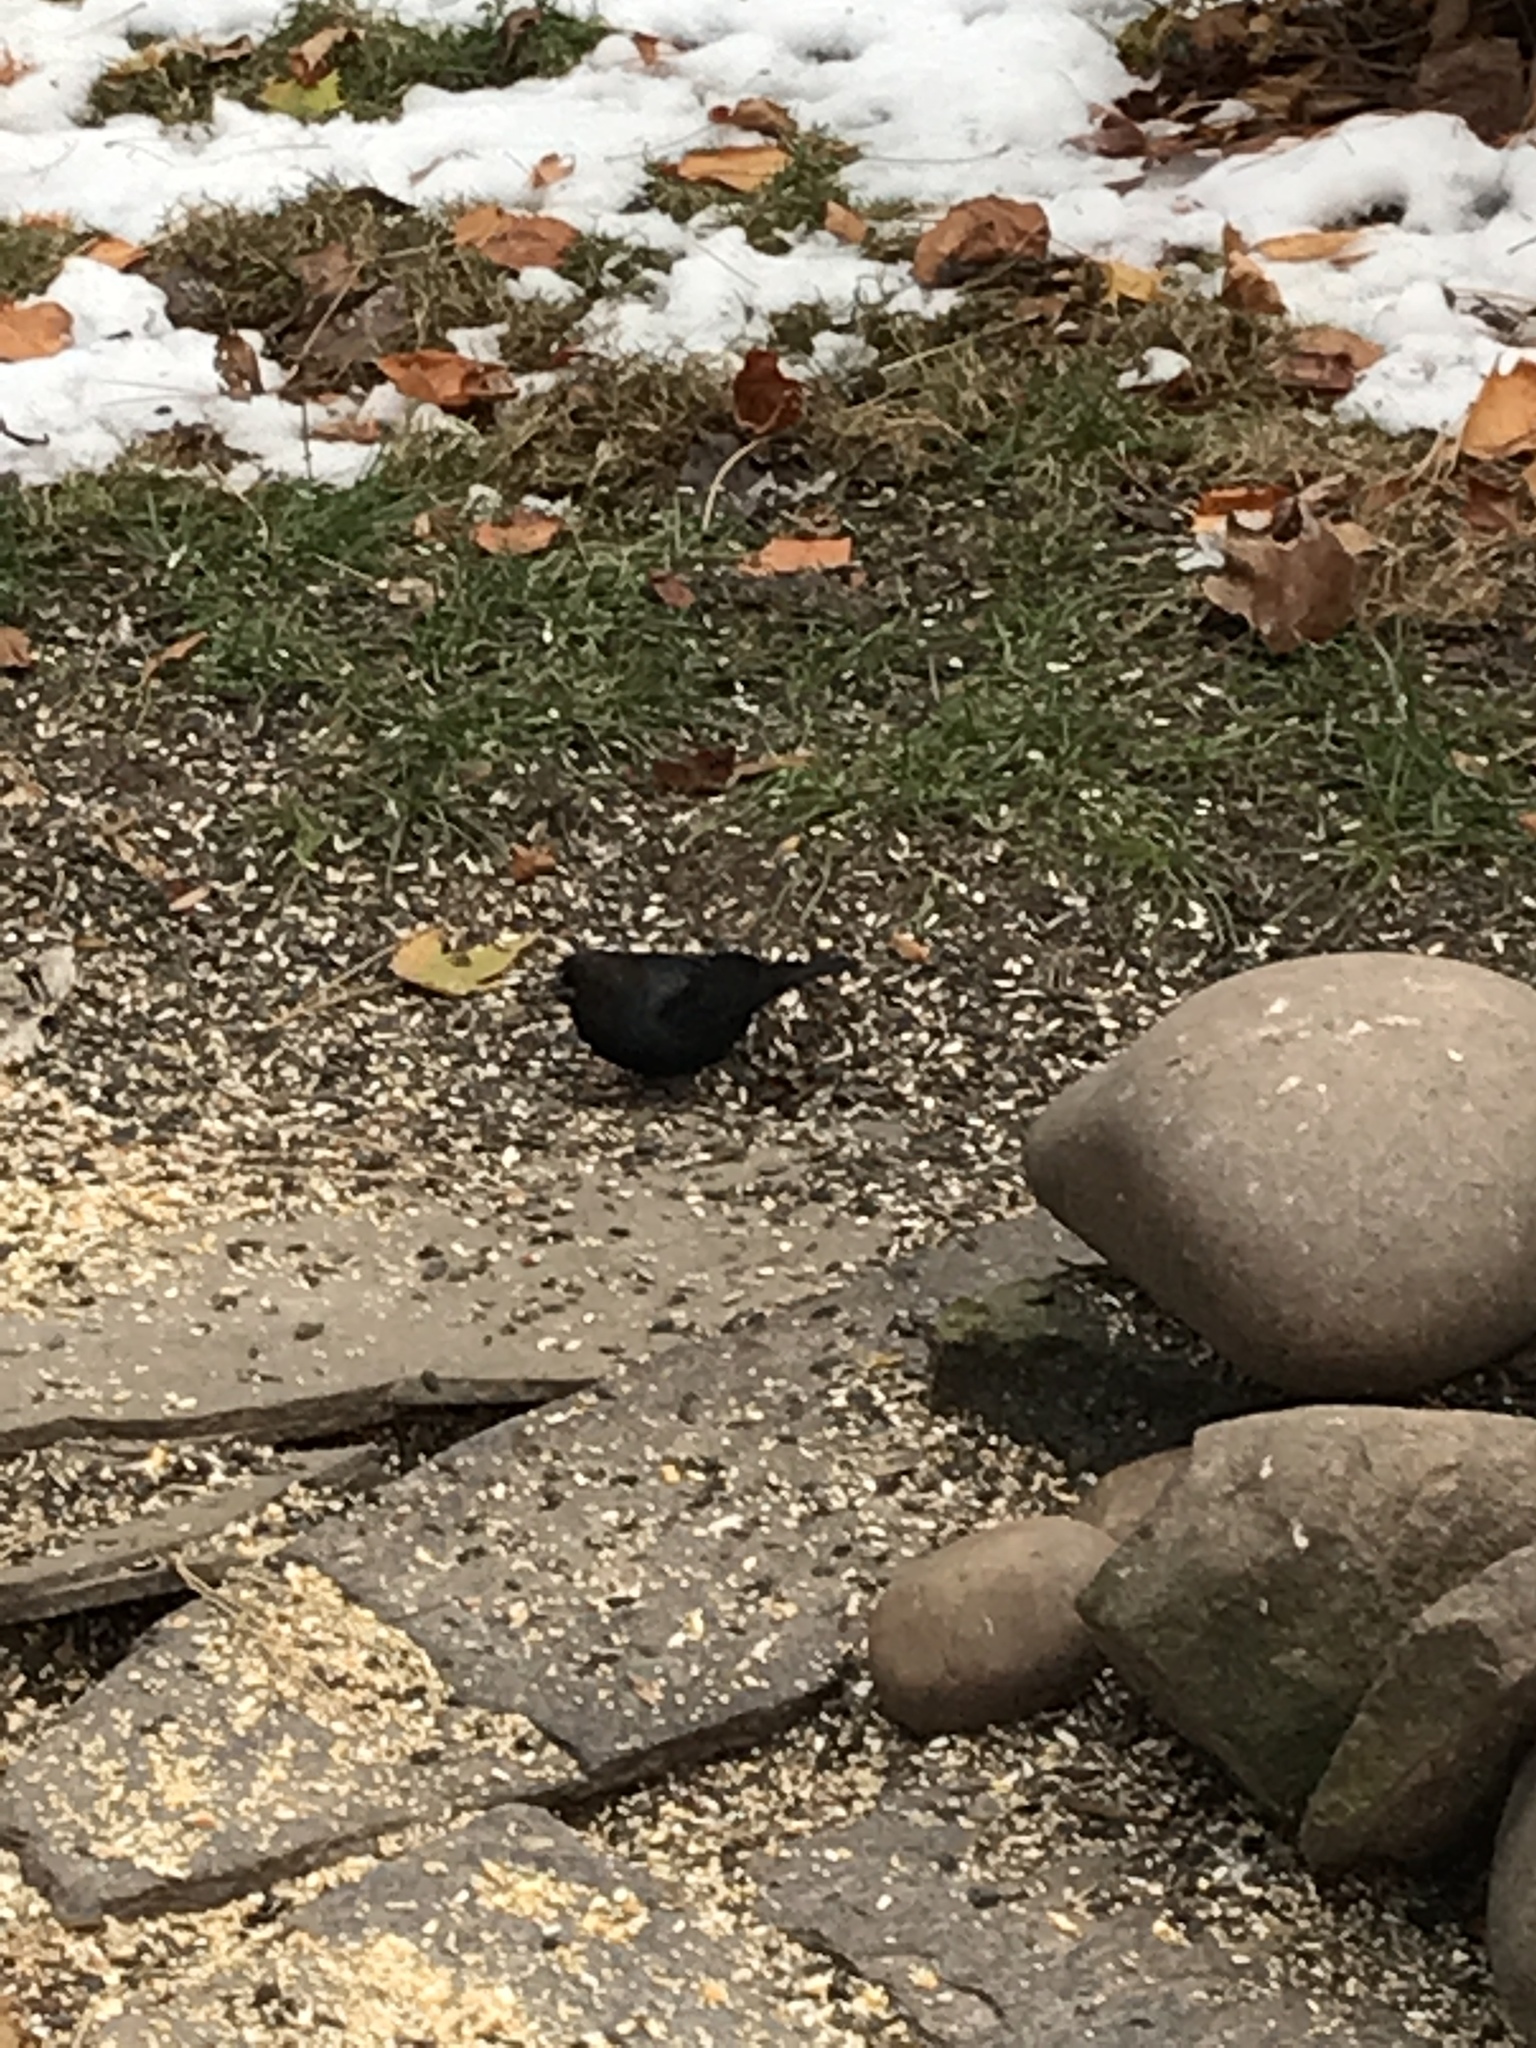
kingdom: Animalia
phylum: Chordata
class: Aves
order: Passeriformes
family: Icteridae
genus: Molothrus
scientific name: Molothrus ater
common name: Brown-headed cowbird
